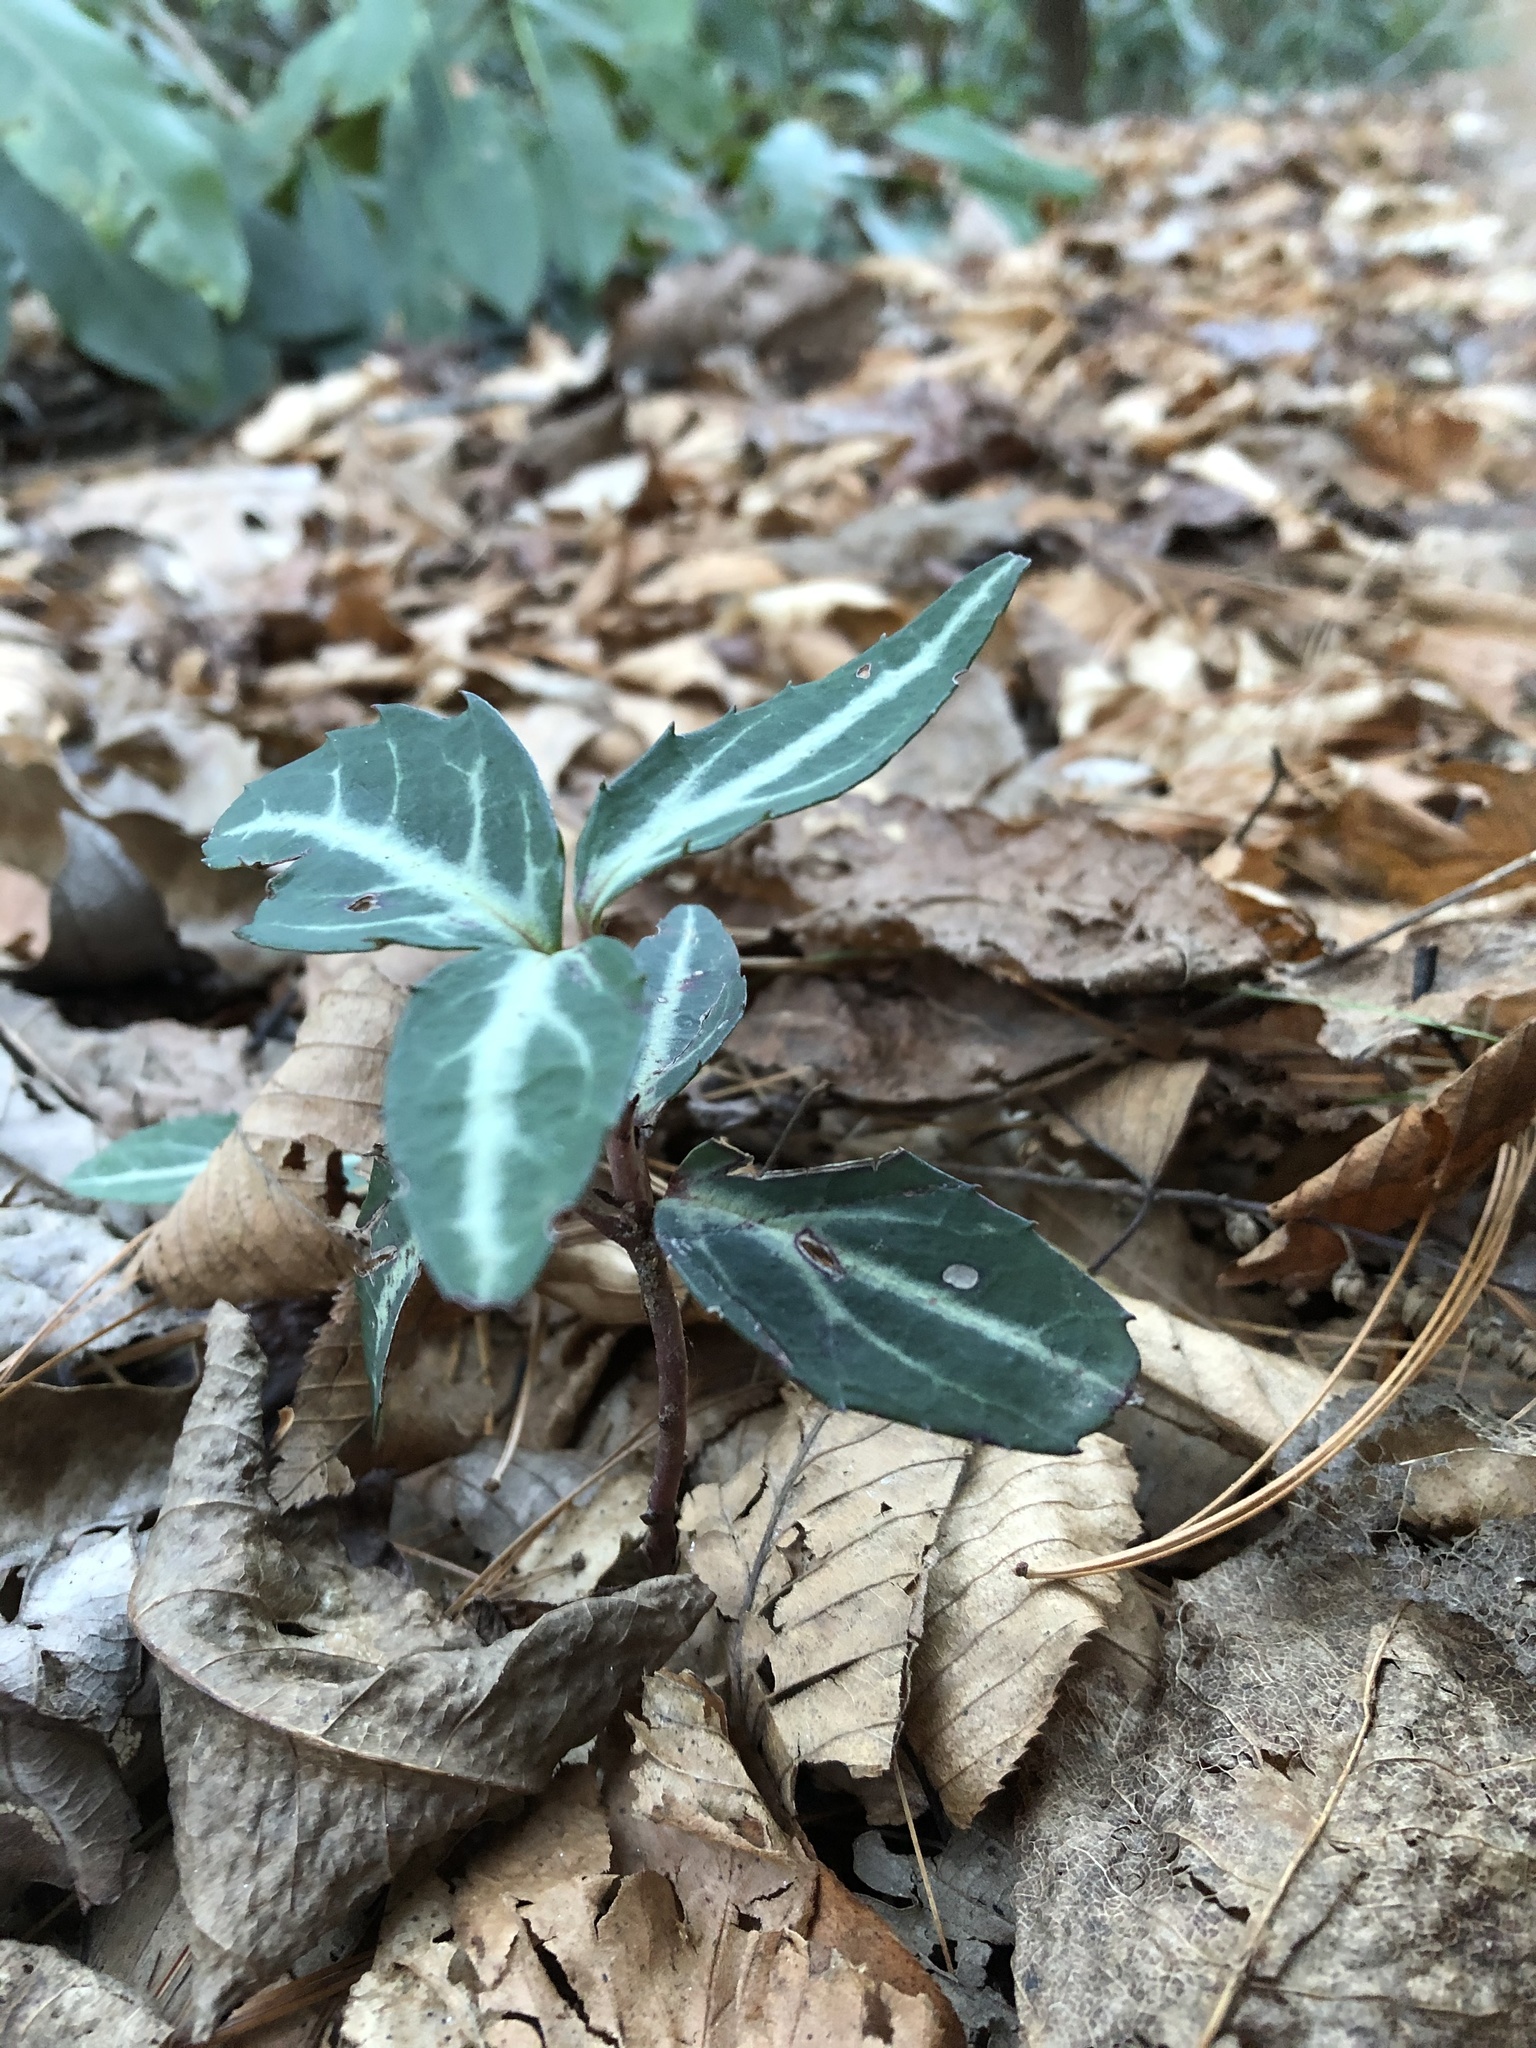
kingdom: Plantae
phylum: Tracheophyta
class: Magnoliopsida
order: Ericales
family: Ericaceae
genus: Chimaphila
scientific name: Chimaphila maculata
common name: Spotted pipsissewa
